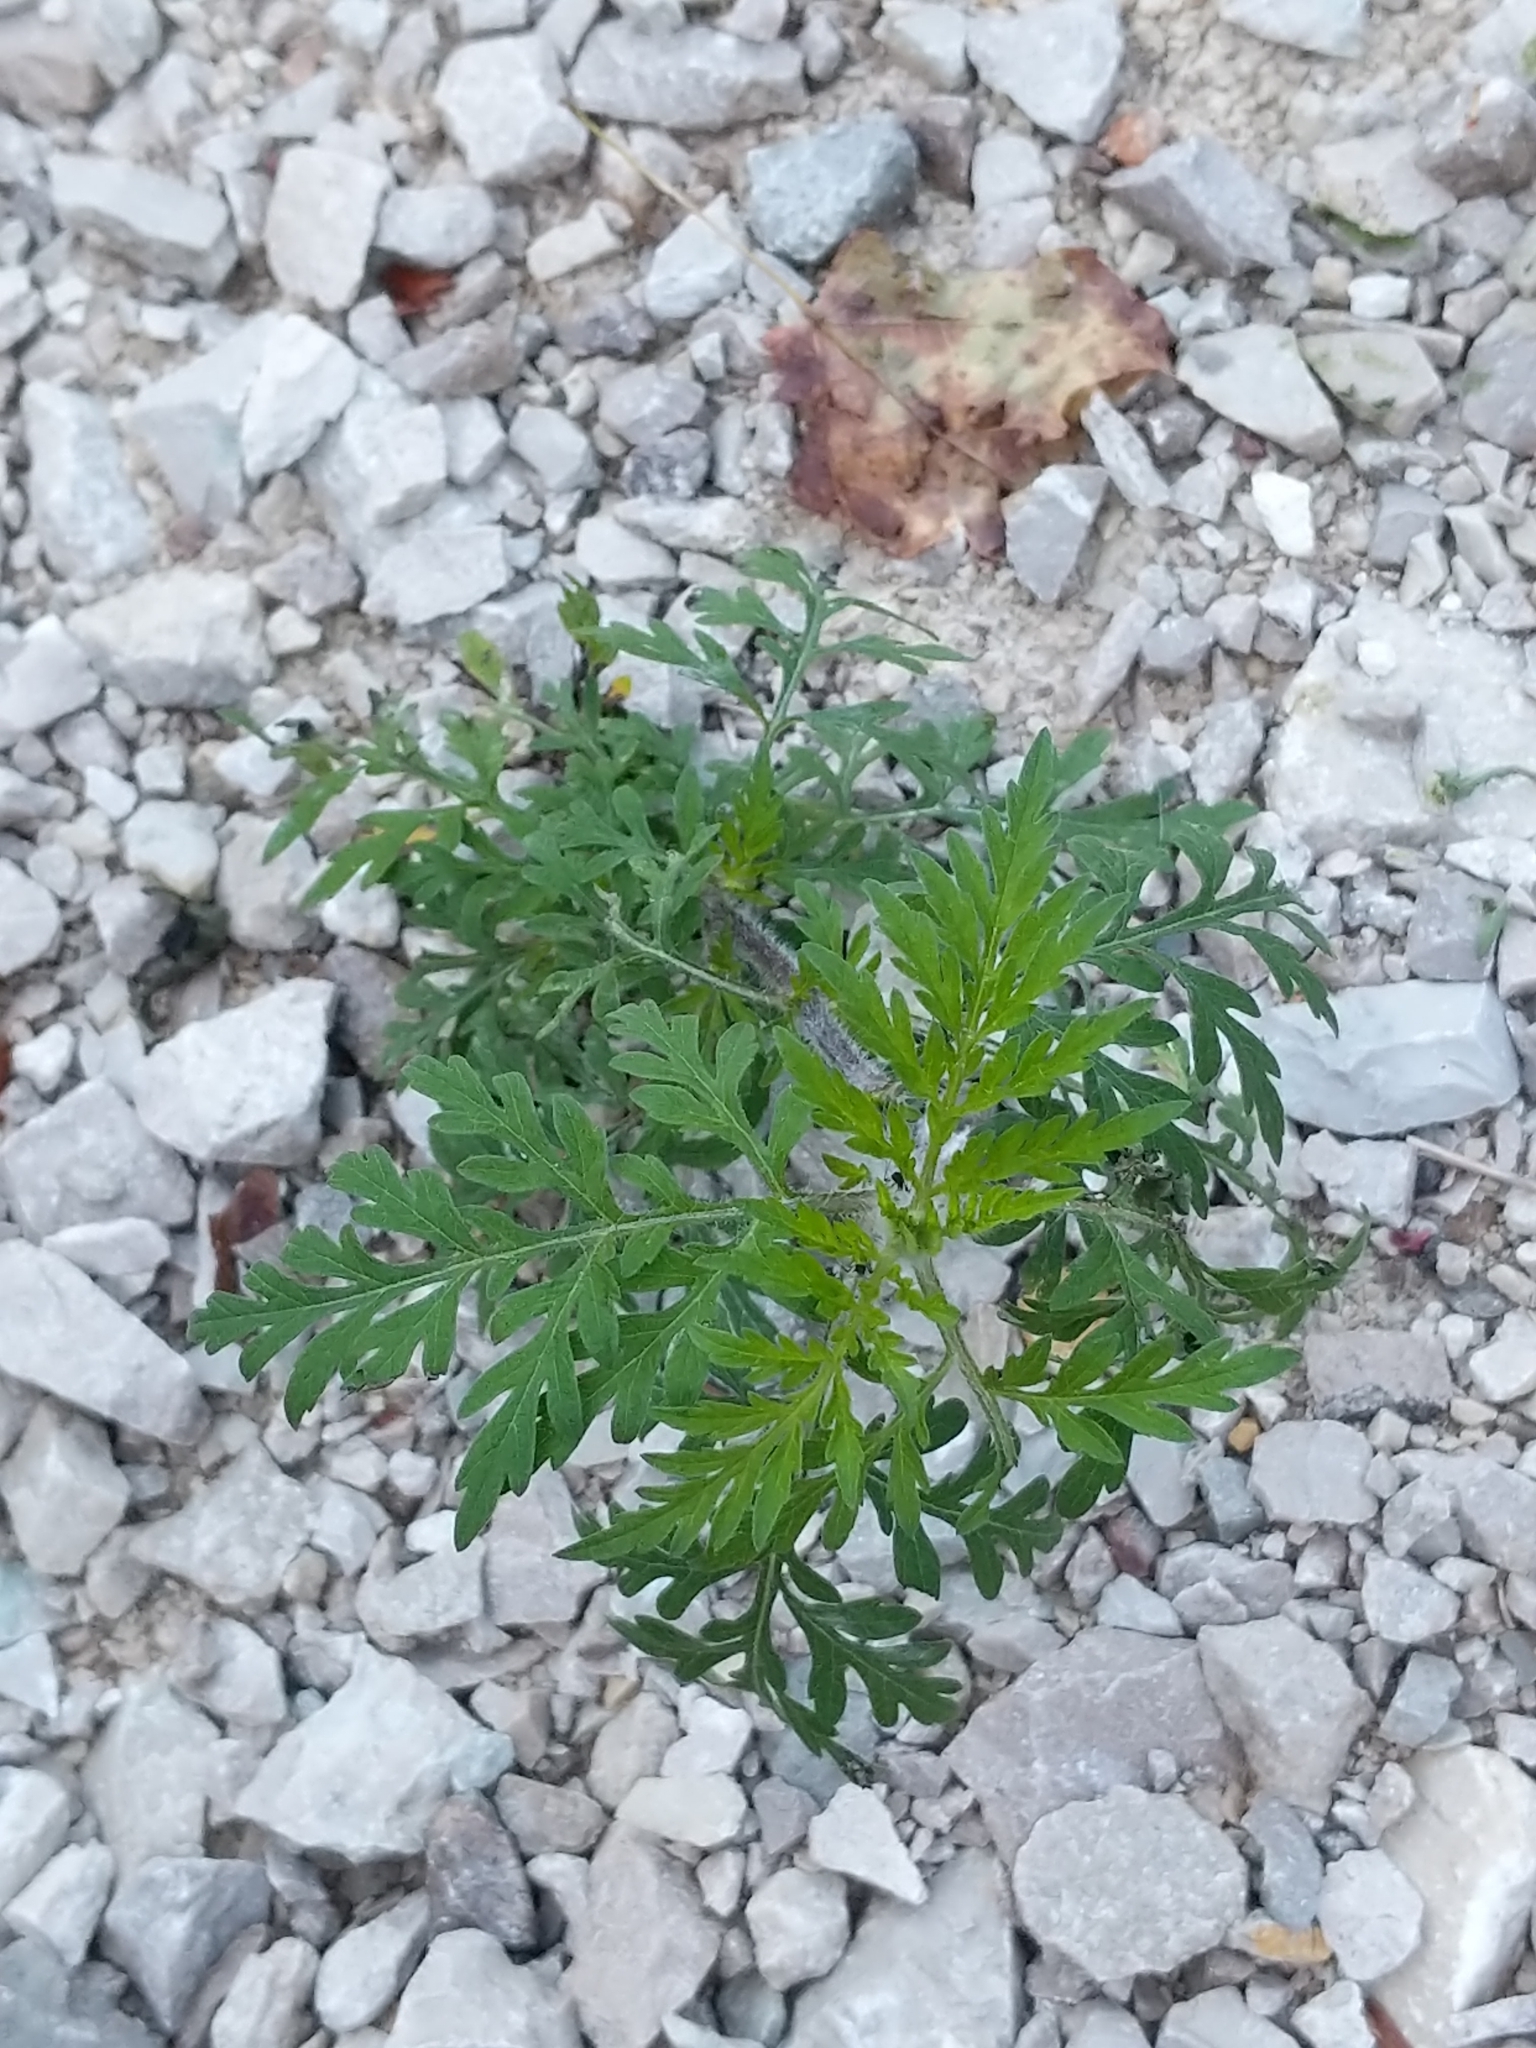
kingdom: Plantae
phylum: Tracheophyta
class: Magnoliopsida
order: Asterales
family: Asteraceae
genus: Ambrosia
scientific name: Ambrosia artemisiifolia
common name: Annual ragweed
